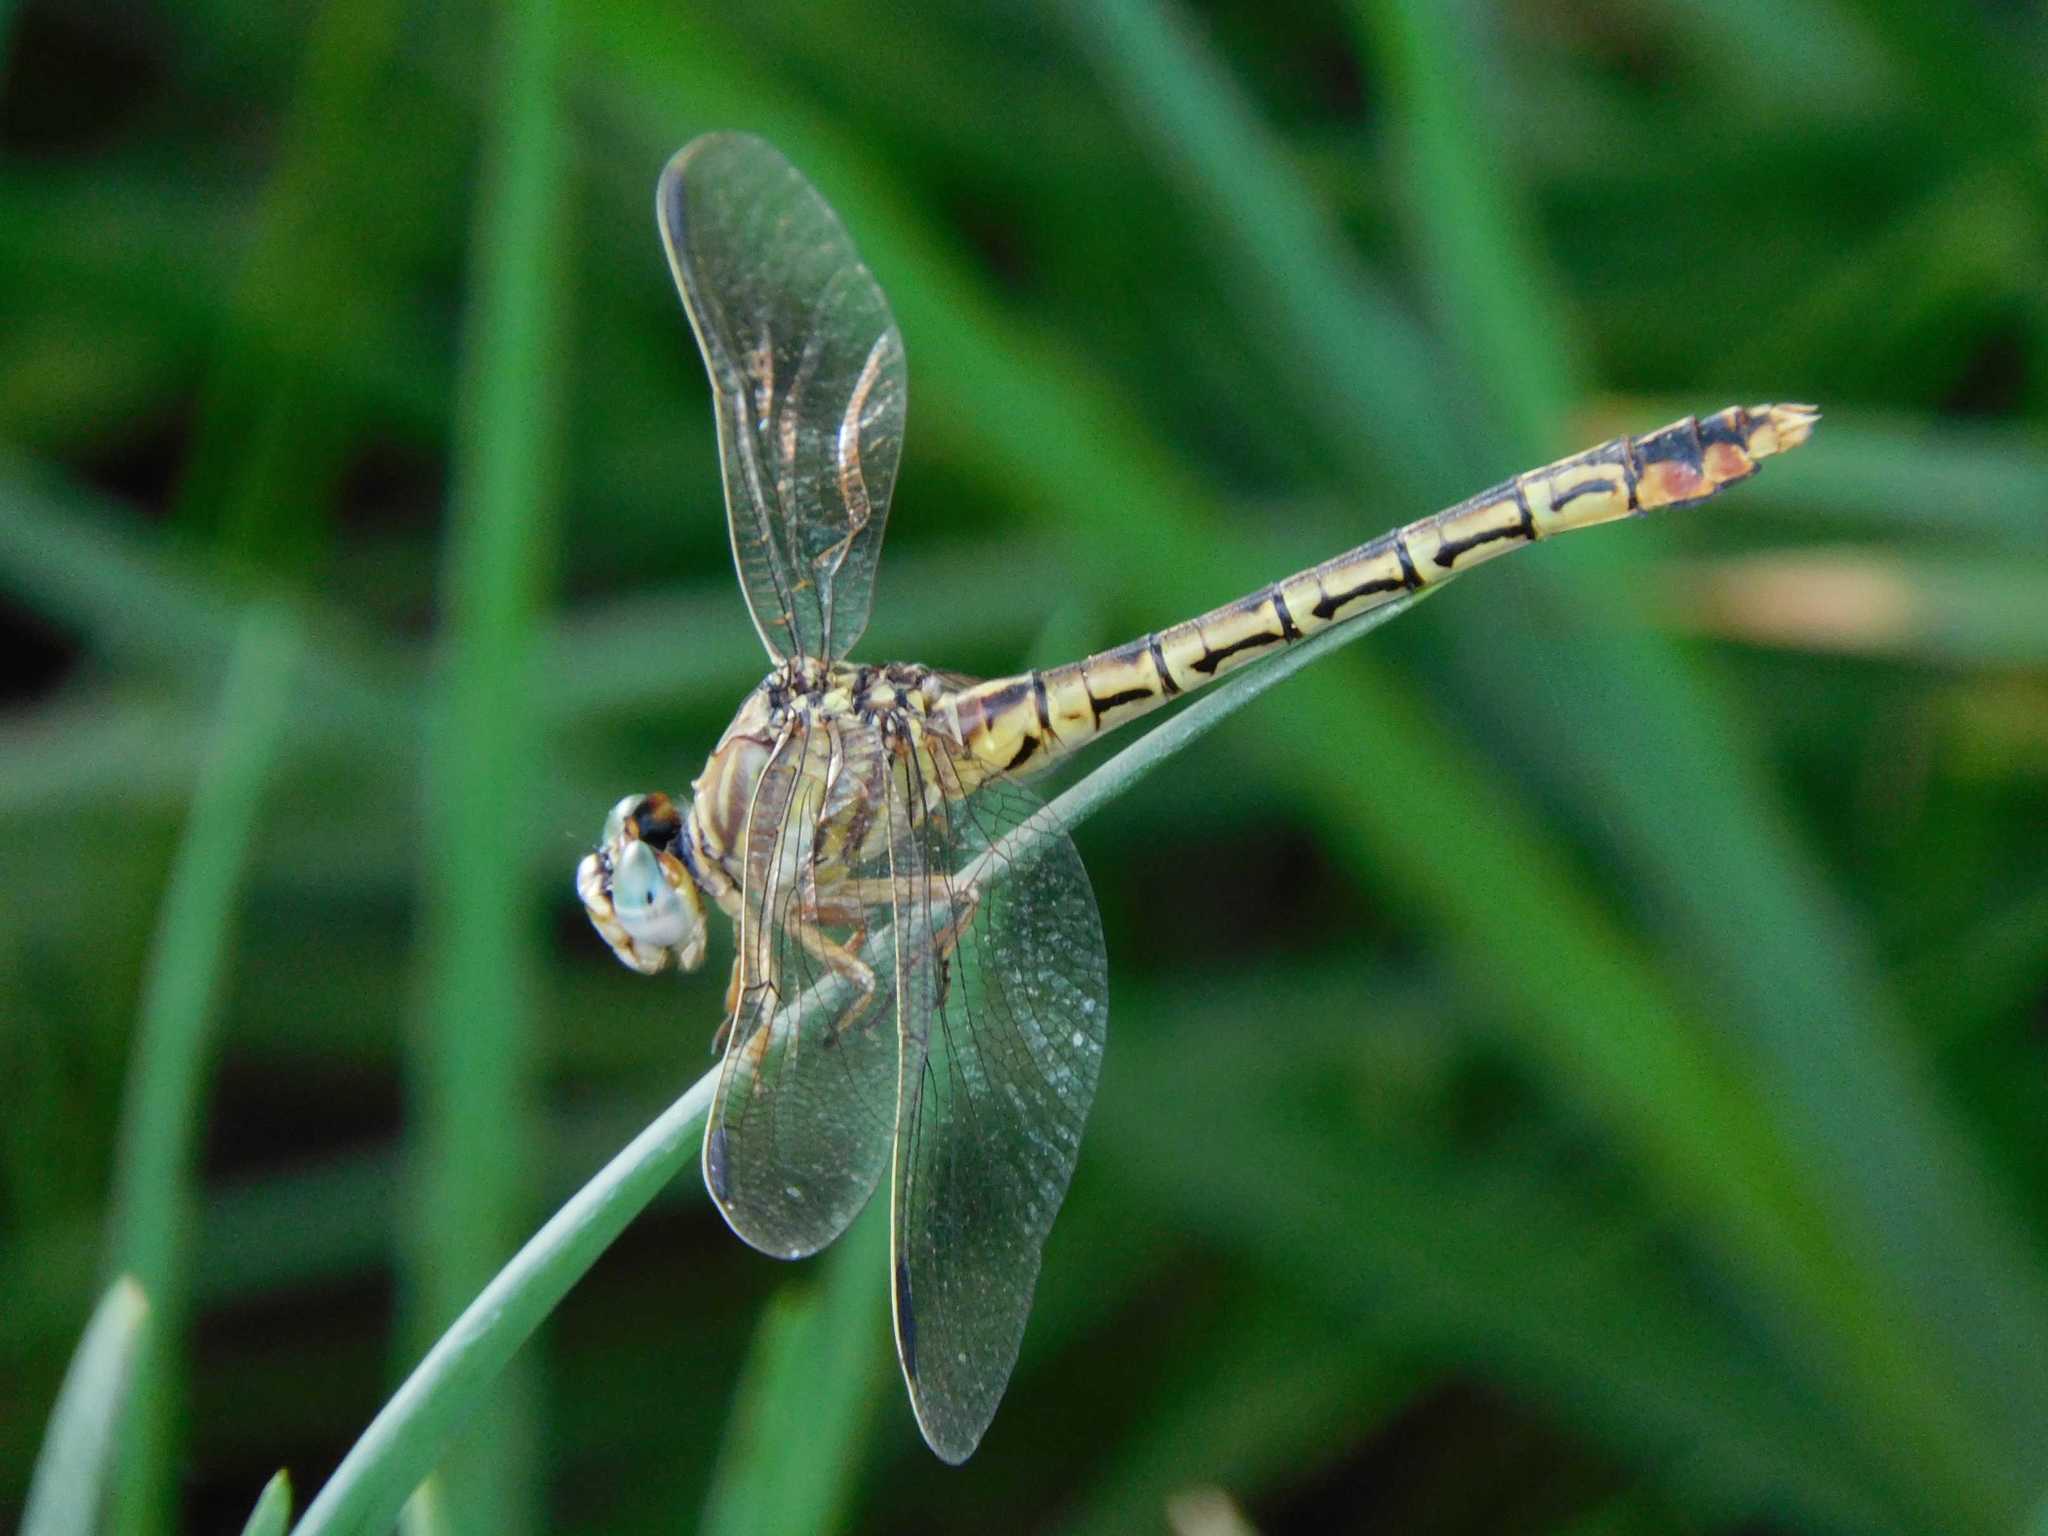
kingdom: Animalia
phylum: Arthropoda
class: Insecta
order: Odonata
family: Gomphidae
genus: Crenigomphus
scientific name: Crenigomphus hartmanni
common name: Clubbed talontail
